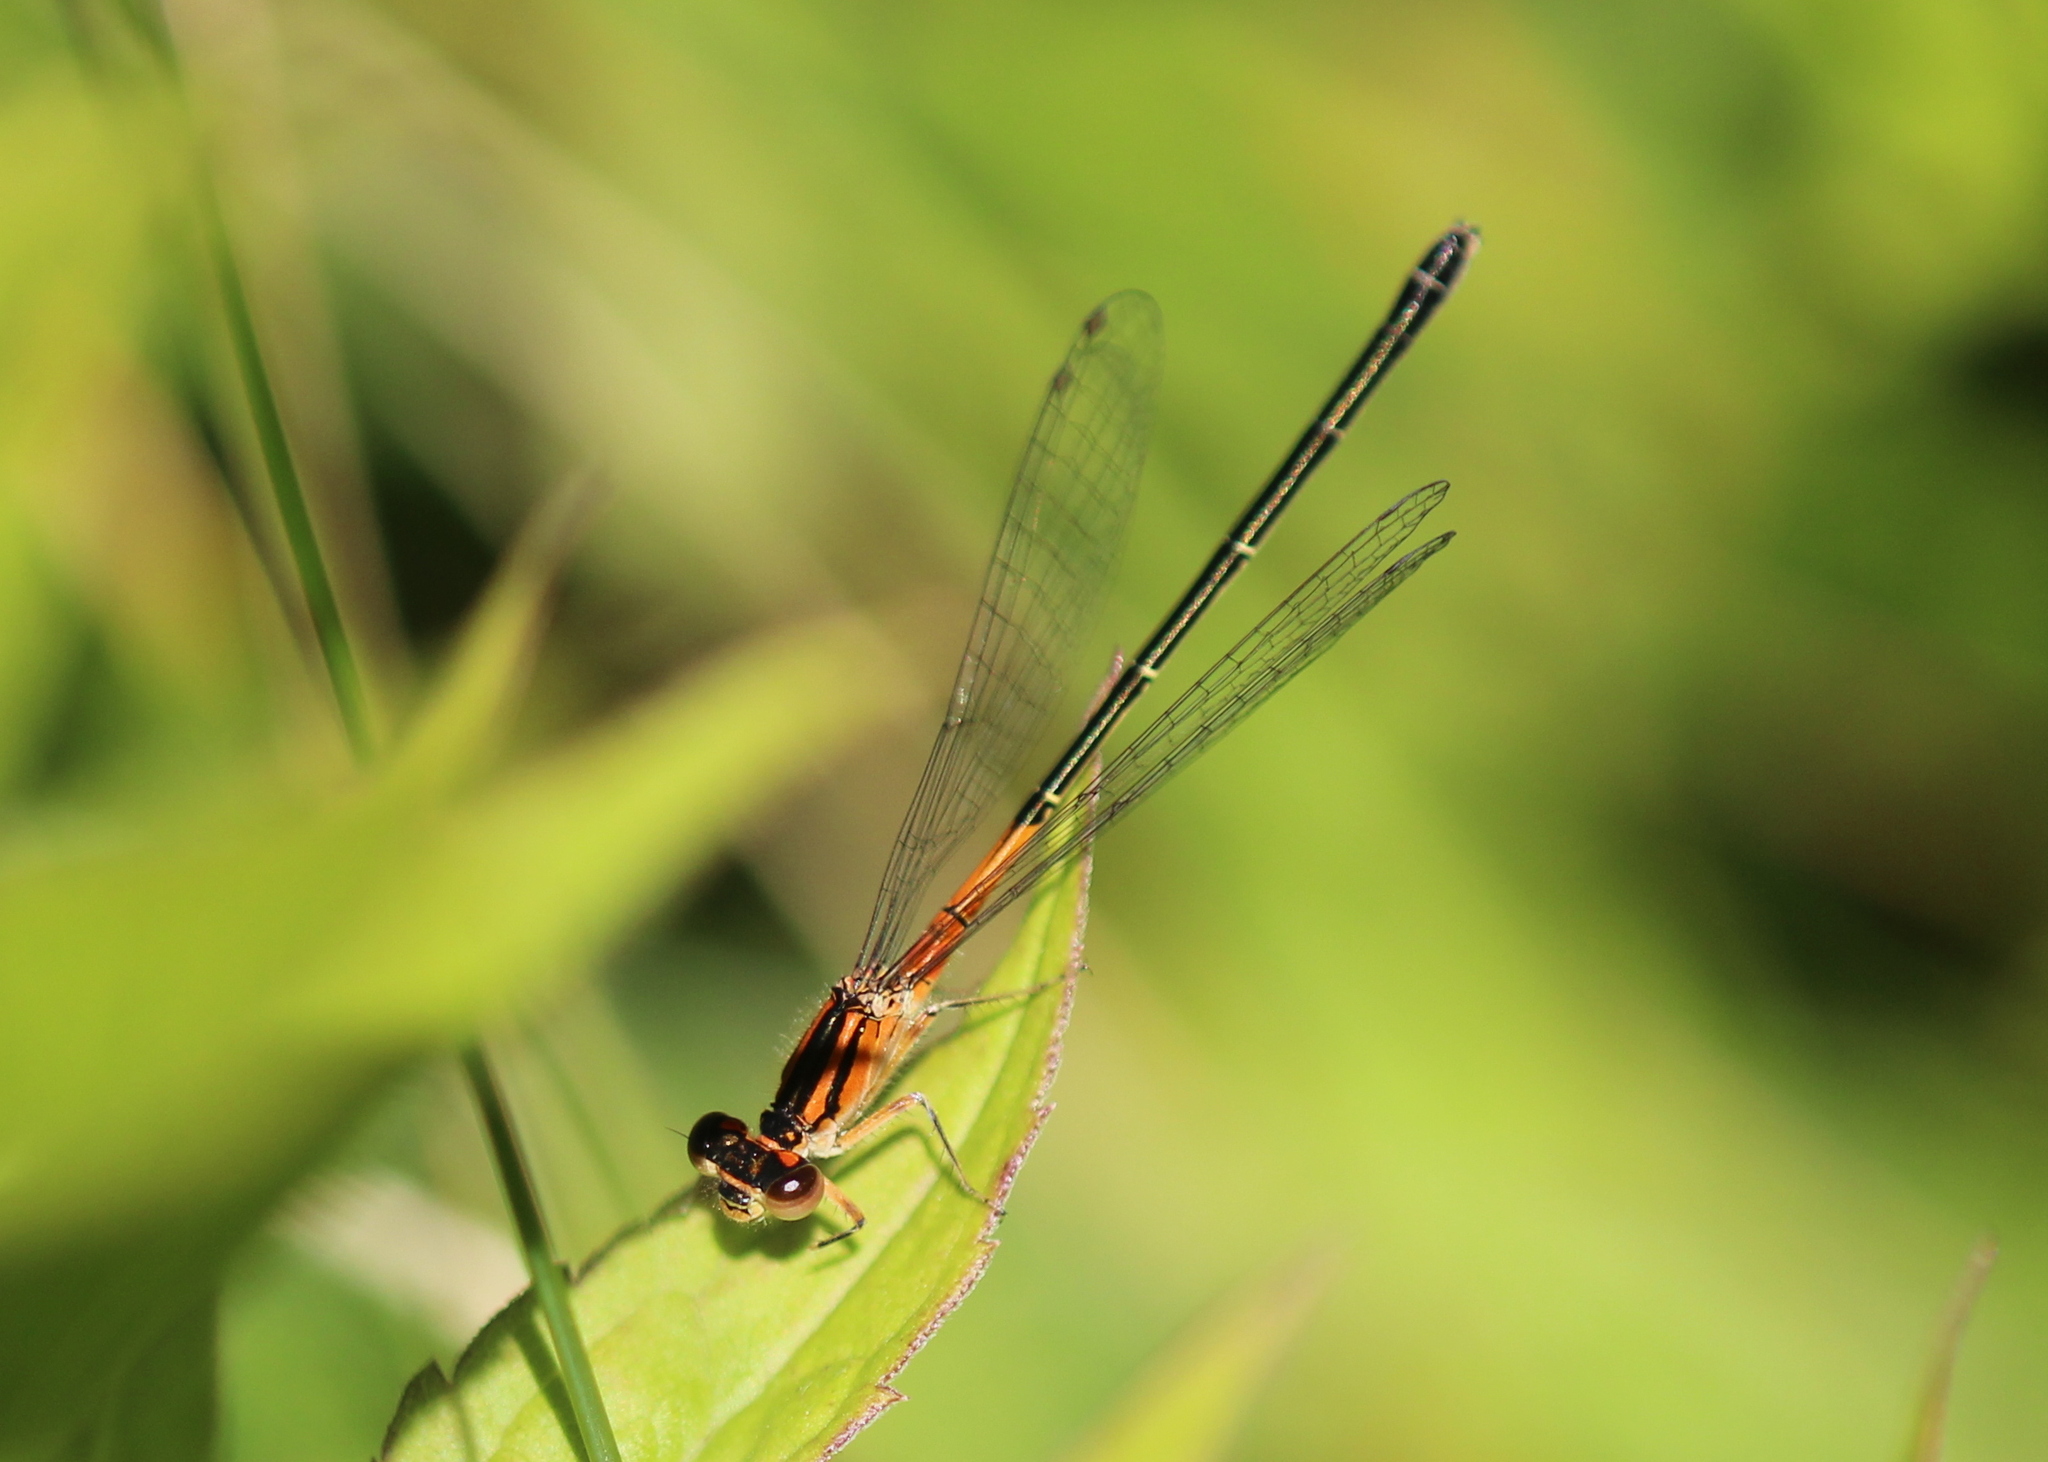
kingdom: Animalia
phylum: Arthropoda
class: Insecta
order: Odonata
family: Coenagrionidae
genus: Ischnura
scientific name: Ischnura verticalis
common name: Eastern forktail
